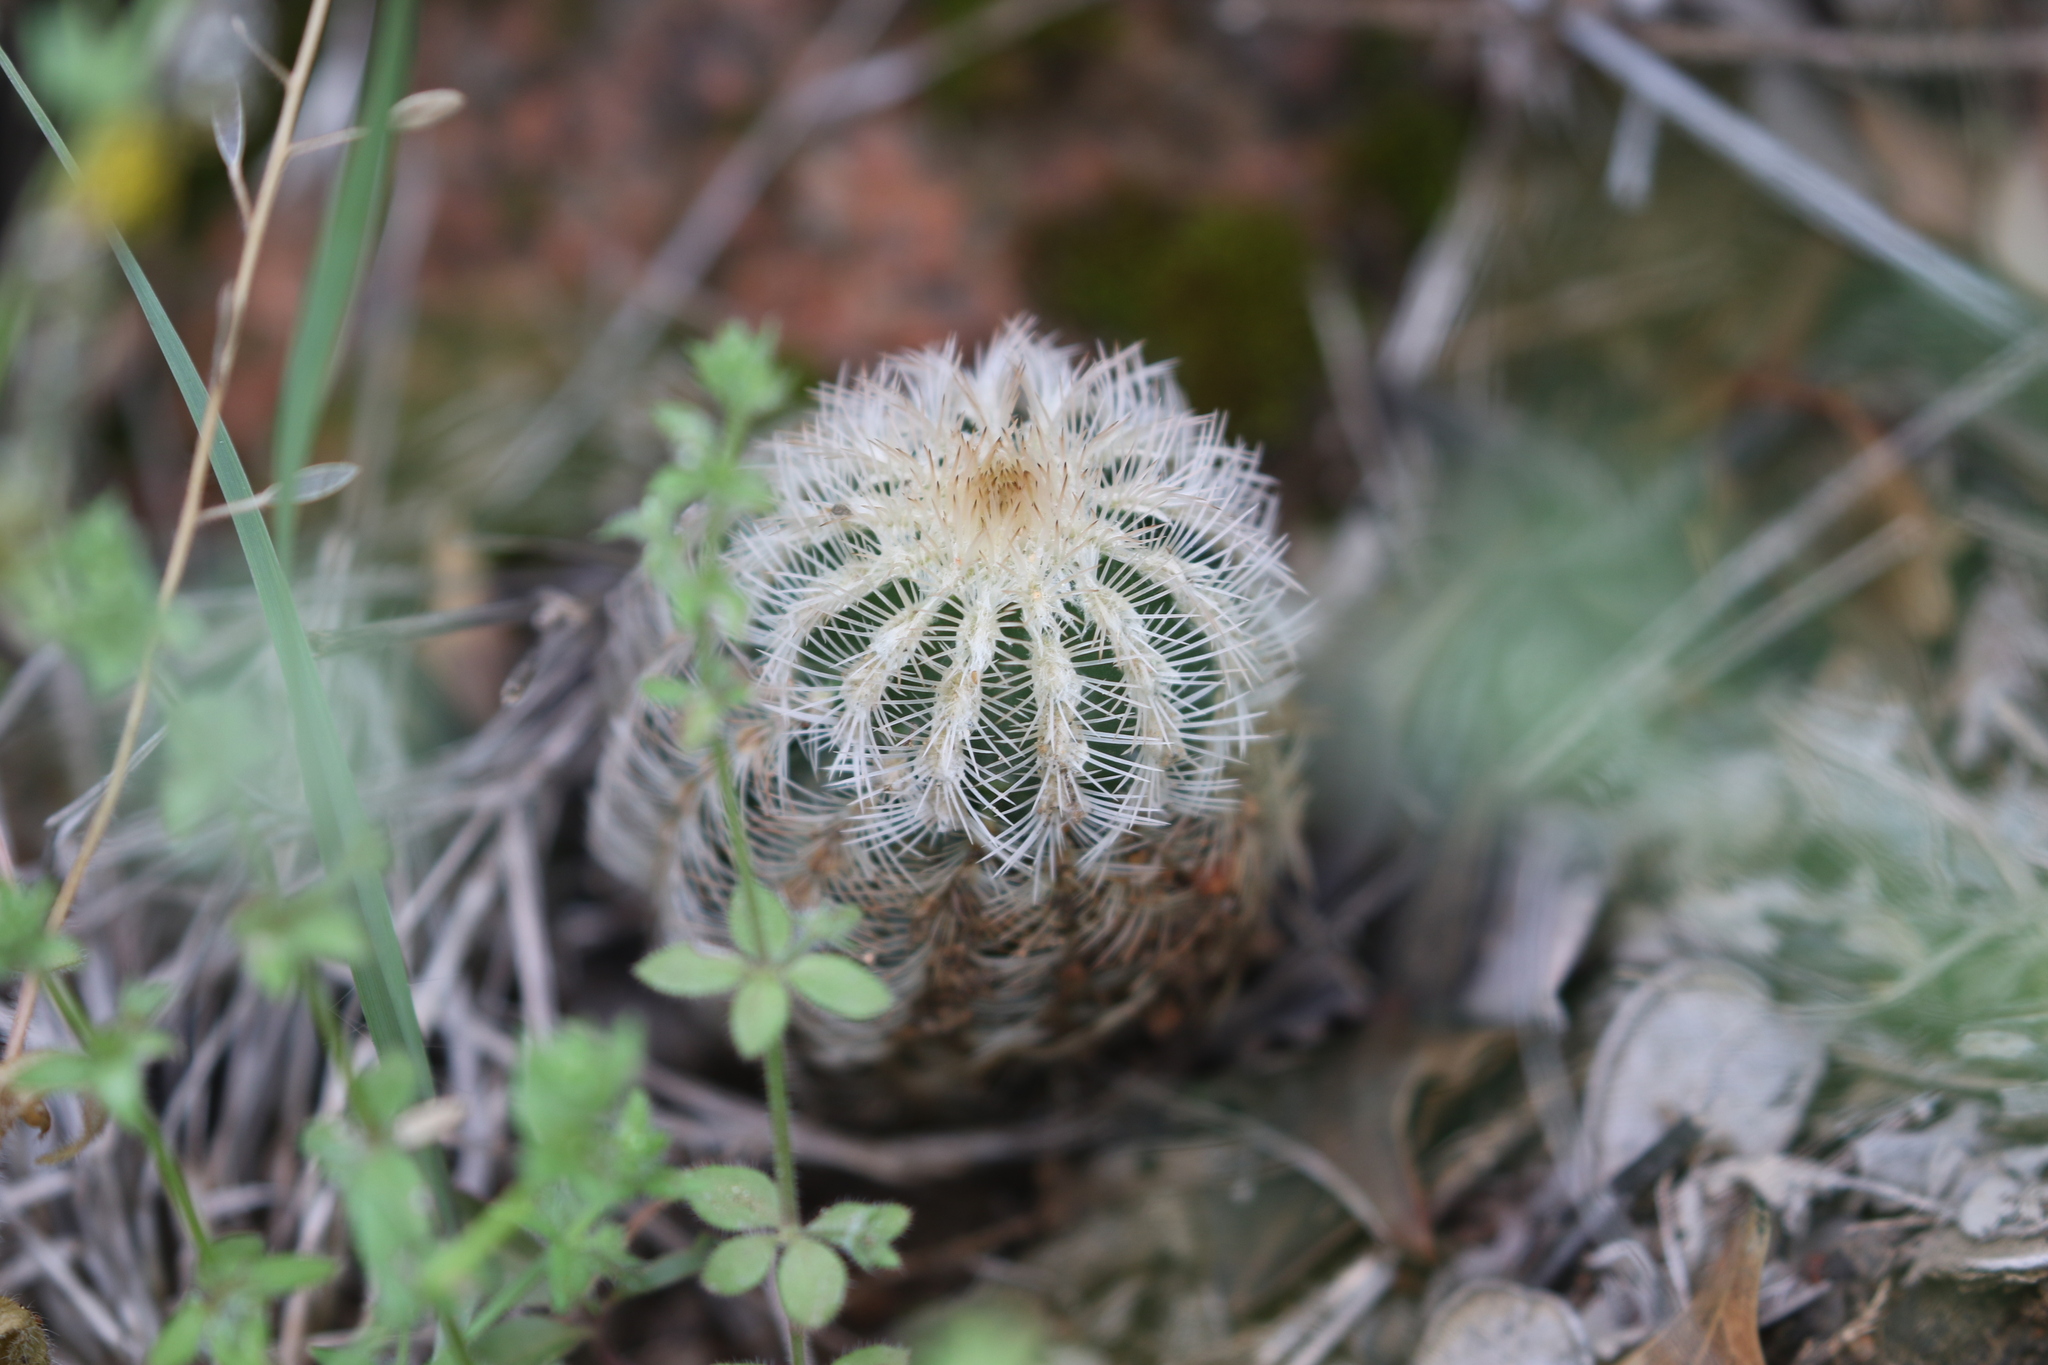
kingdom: Plantae
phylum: Tracheophyta
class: Magnoliopsida
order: Caryophyllales
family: Cactaceae
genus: Echinocereus
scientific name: Echinocereus reichenbachii
